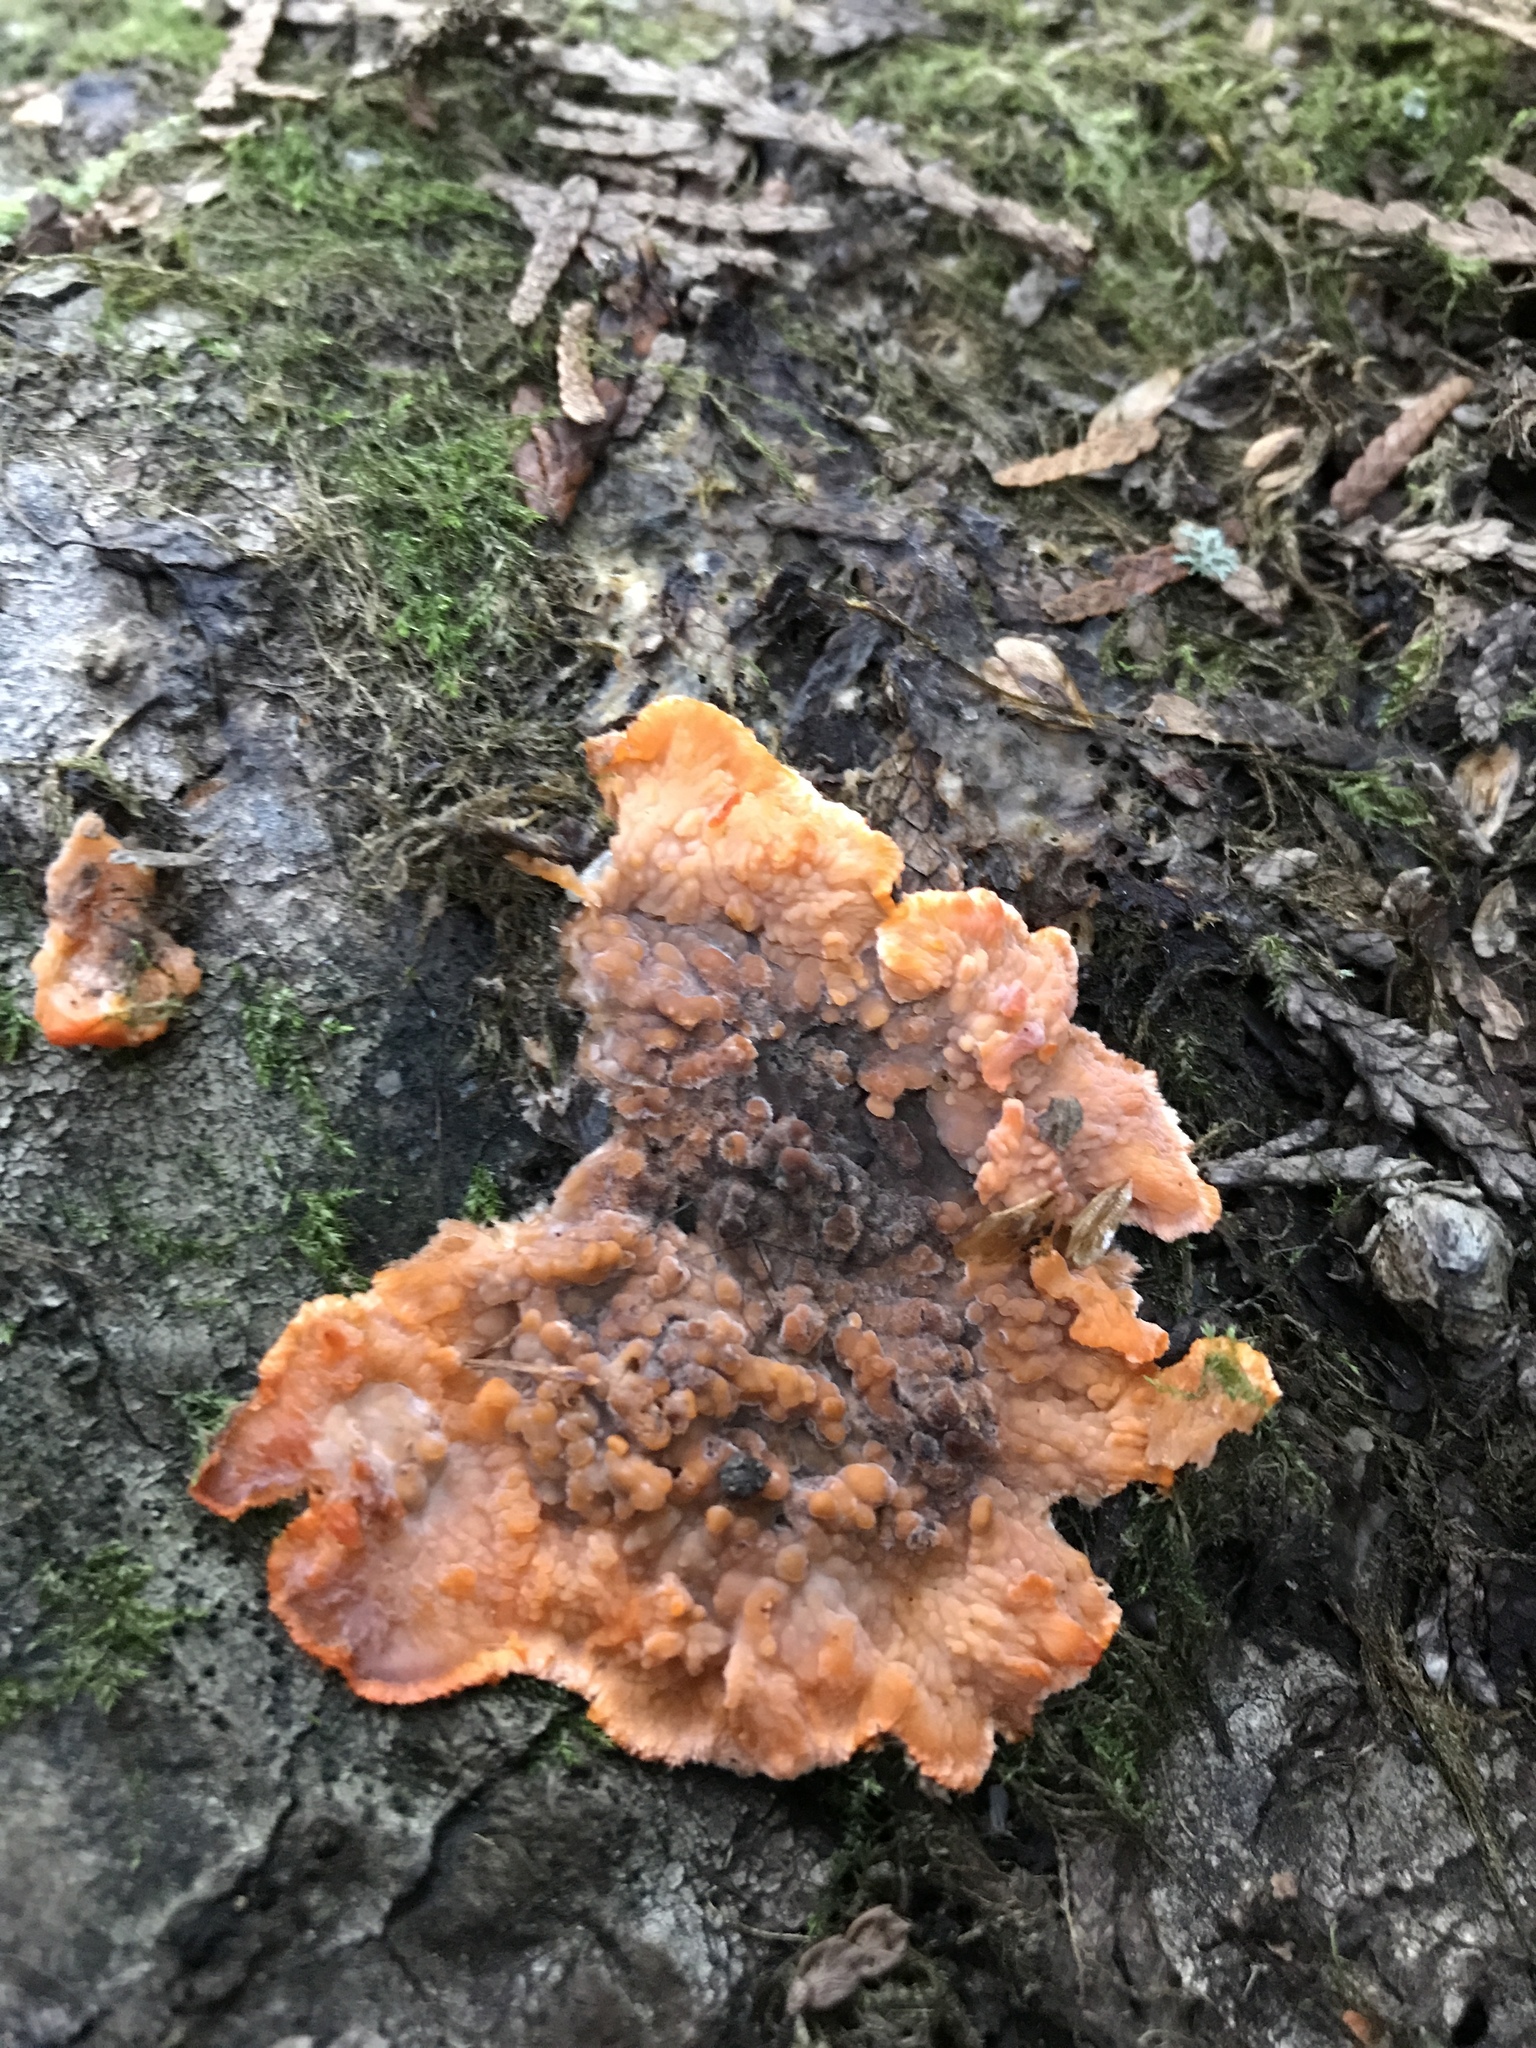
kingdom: Fungi
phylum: Basidiomycota
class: Agaricomycetes
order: Polyporales
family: Meruliaceae
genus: Phlebia
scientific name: Phlebia radiata
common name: Wrinkled crust
